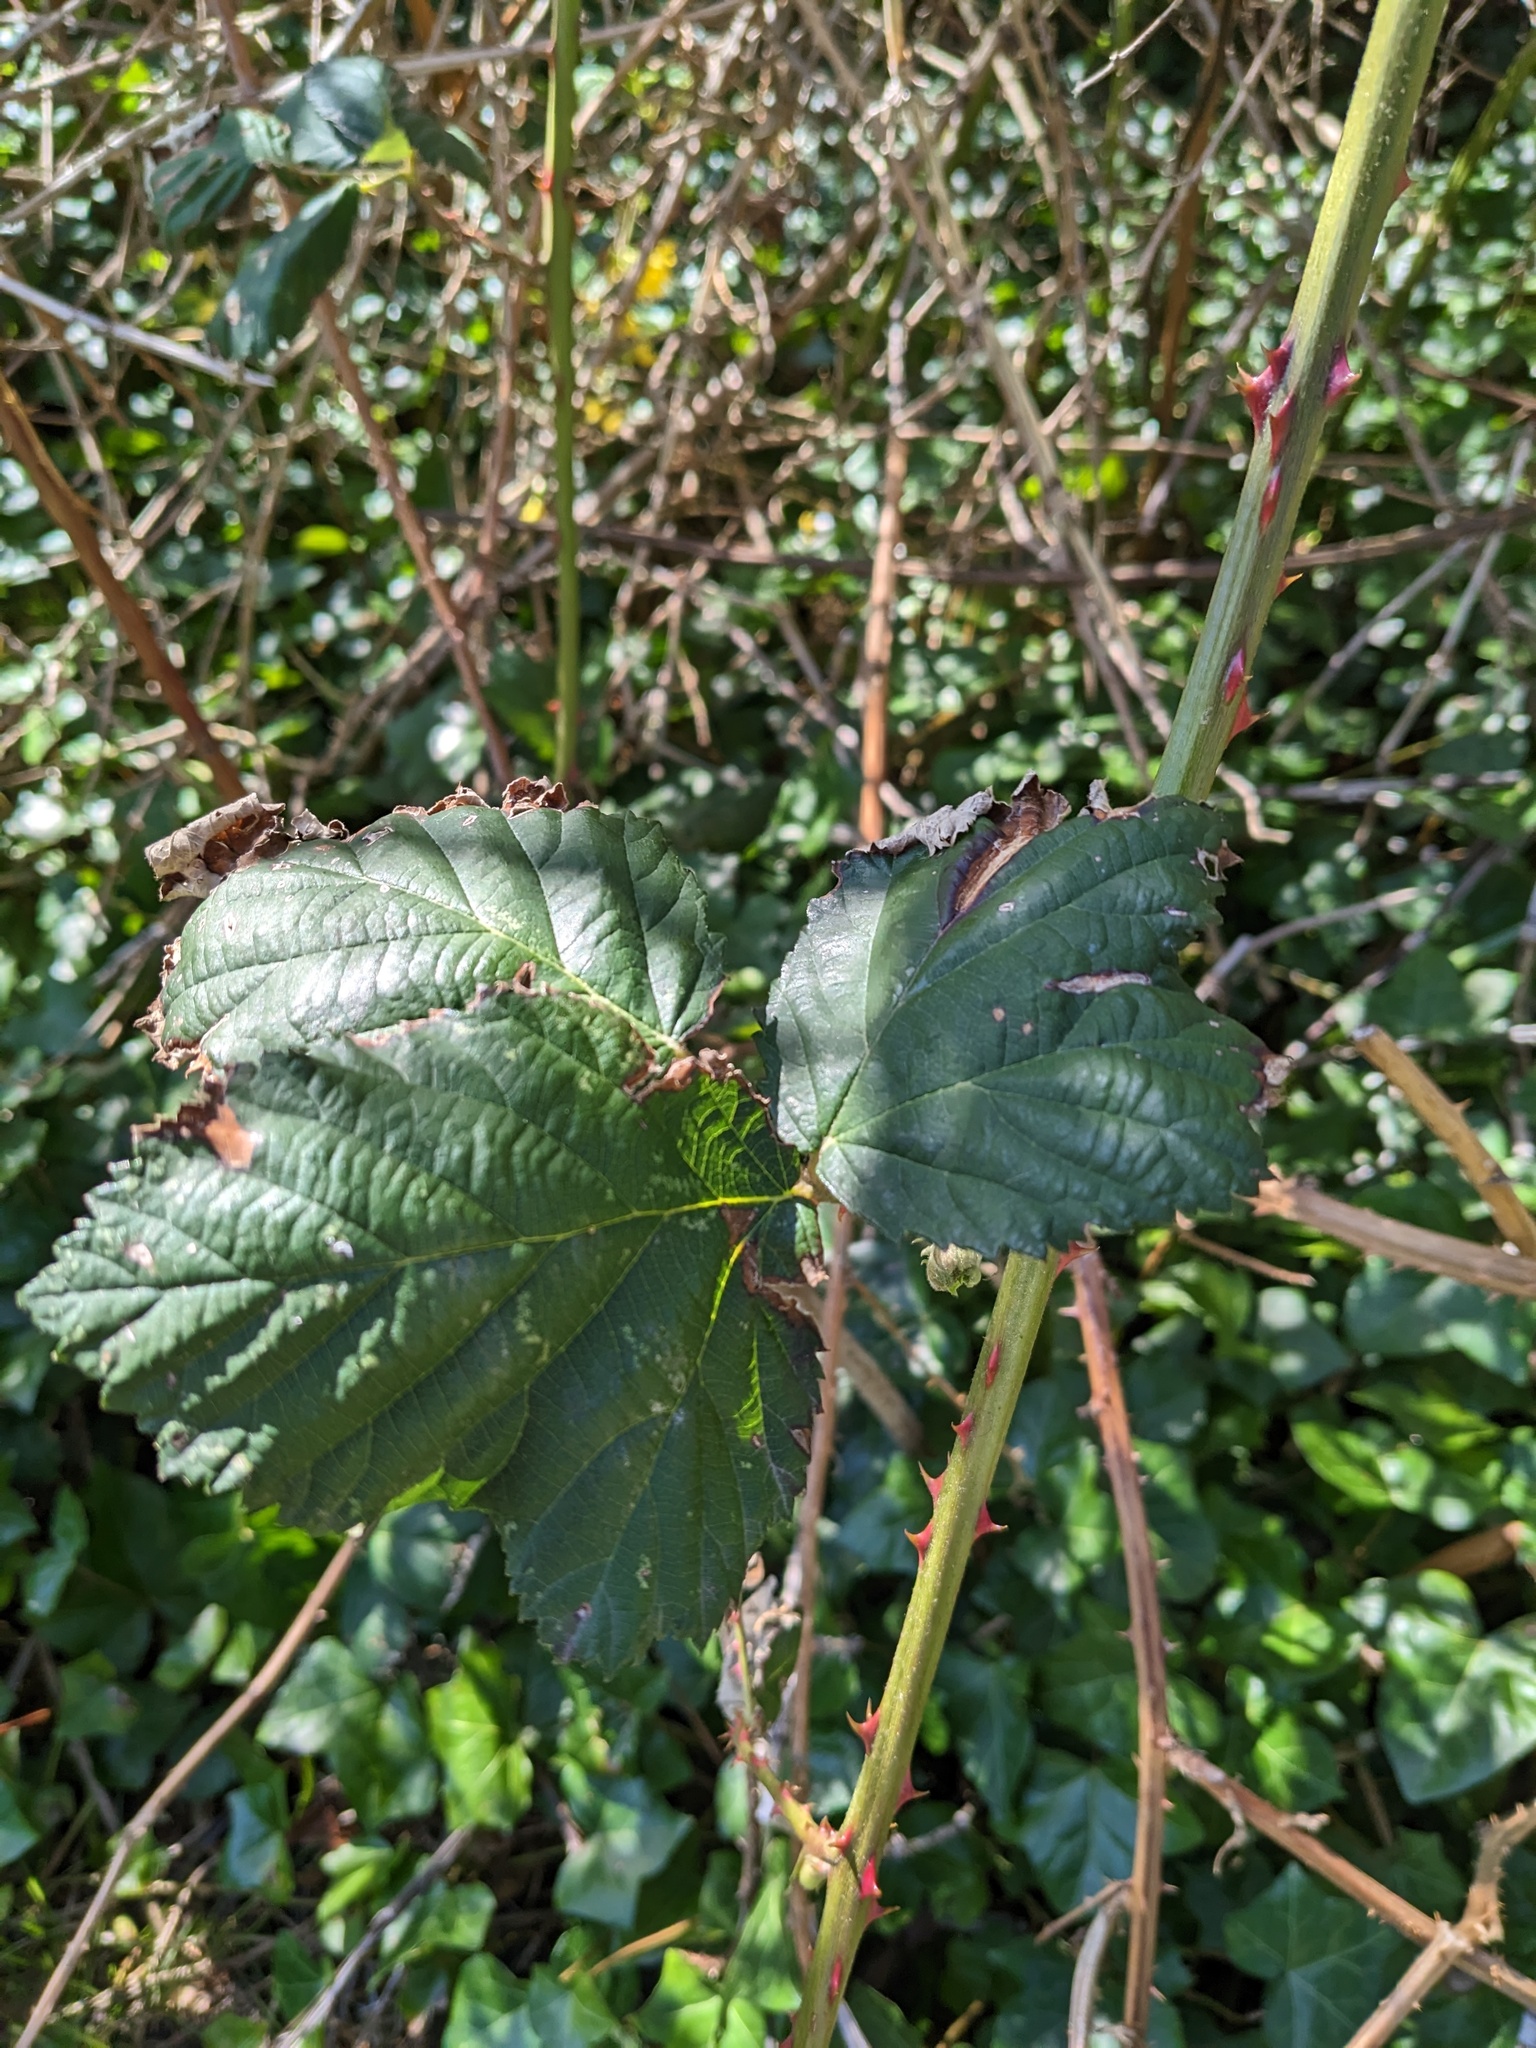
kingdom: Plantae
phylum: Tracheophyta
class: Magnoliopsida
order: Rosales
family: Rosaceae
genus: Rubus
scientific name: Rubus bifrons
